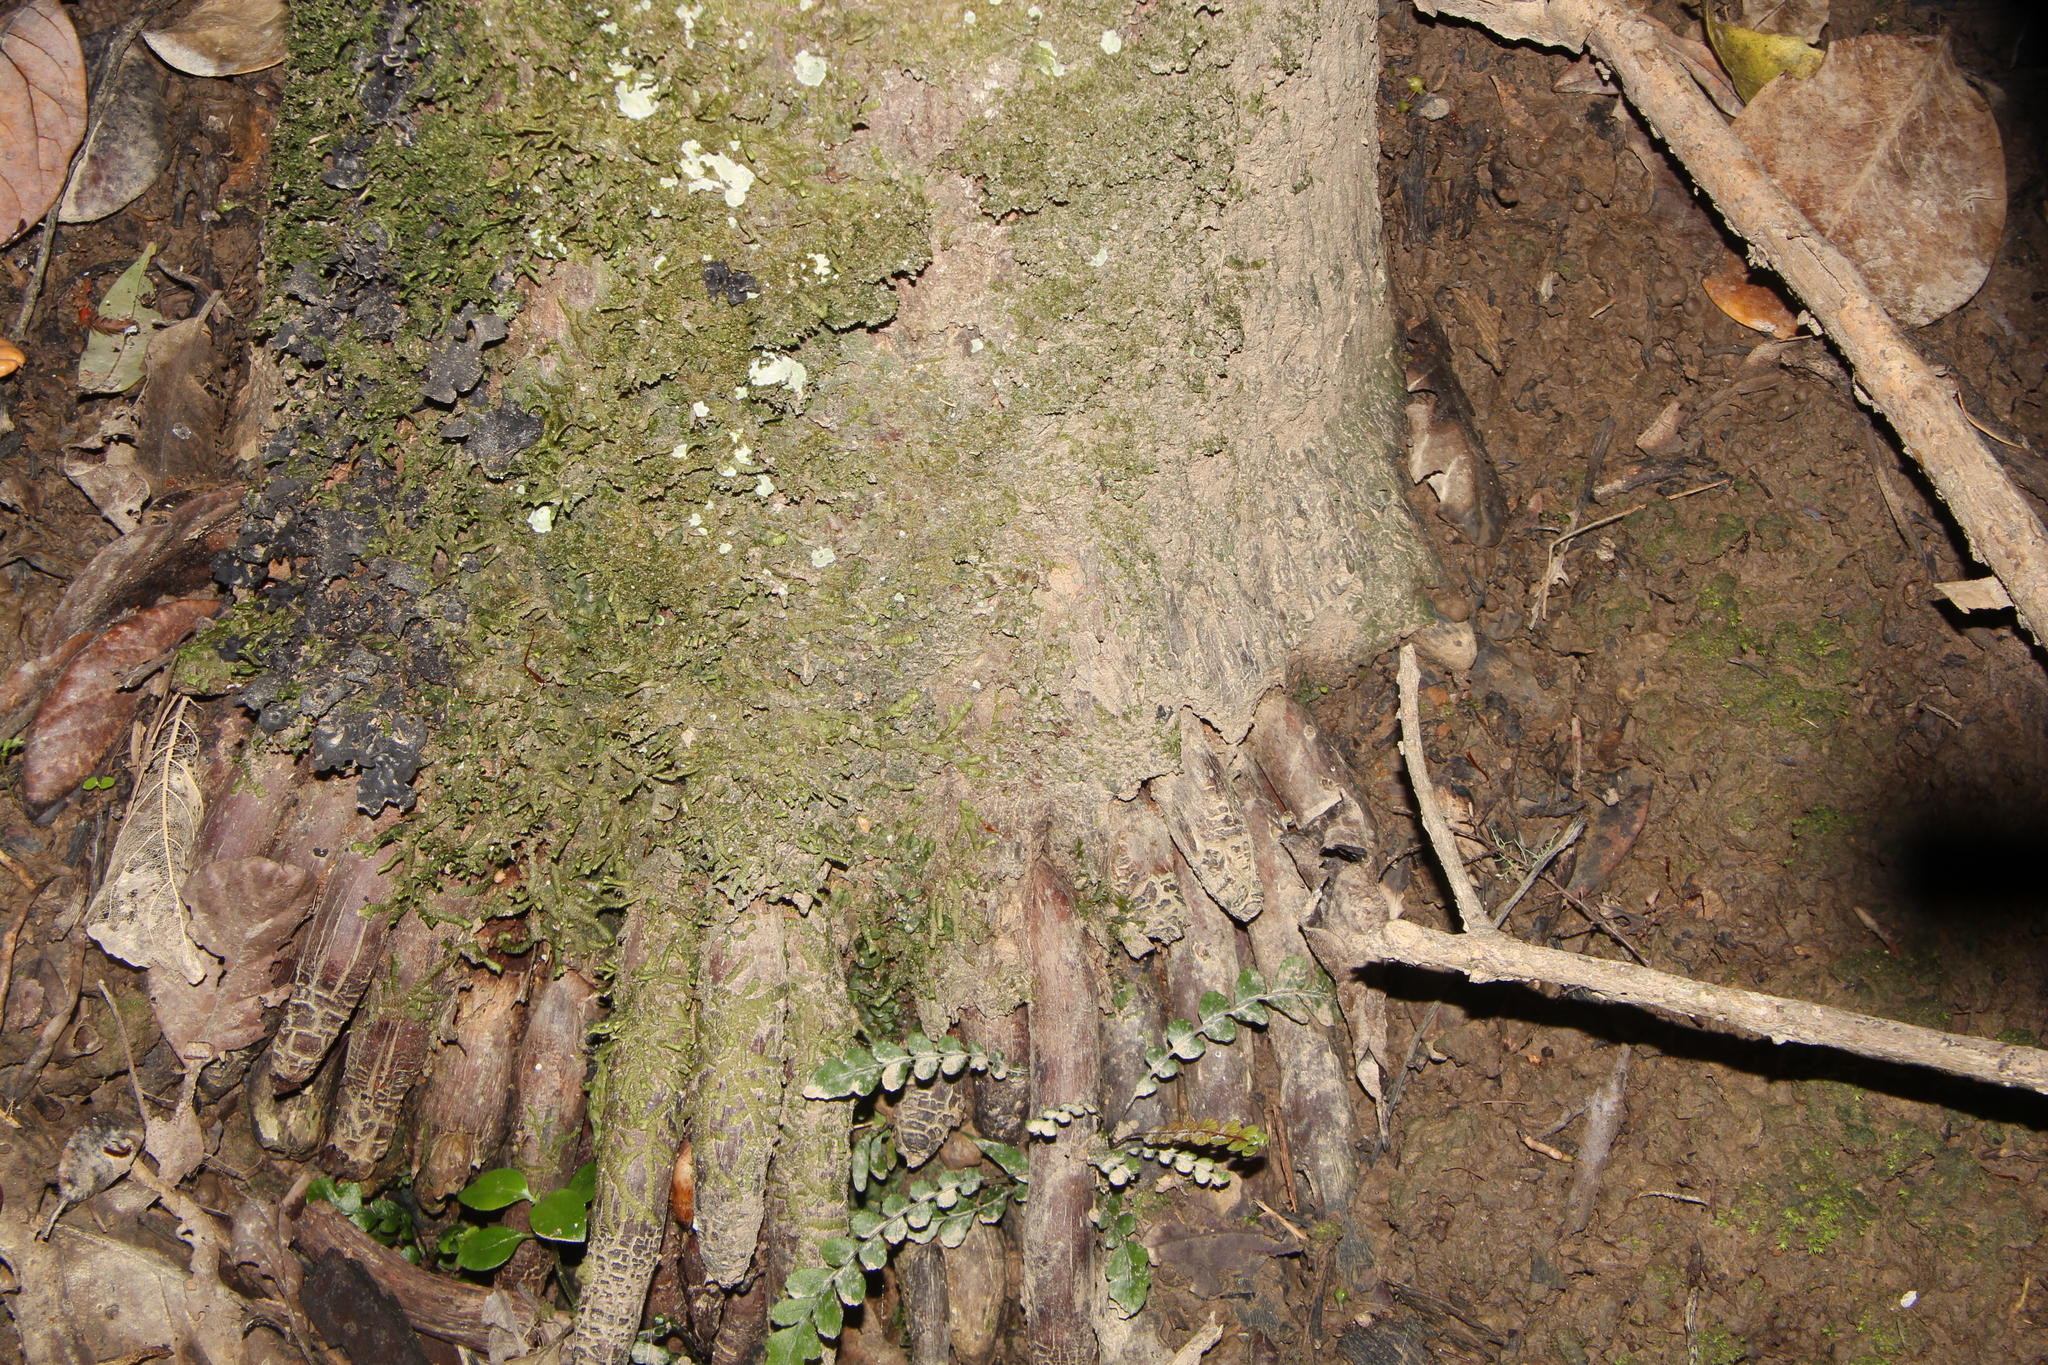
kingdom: Plantae
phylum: Tracheophyta
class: Liliopsida
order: Arecales
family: Arecaceae
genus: Rhopalostylis
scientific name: Rhopalostylis sapida
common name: Feather-duster palm
